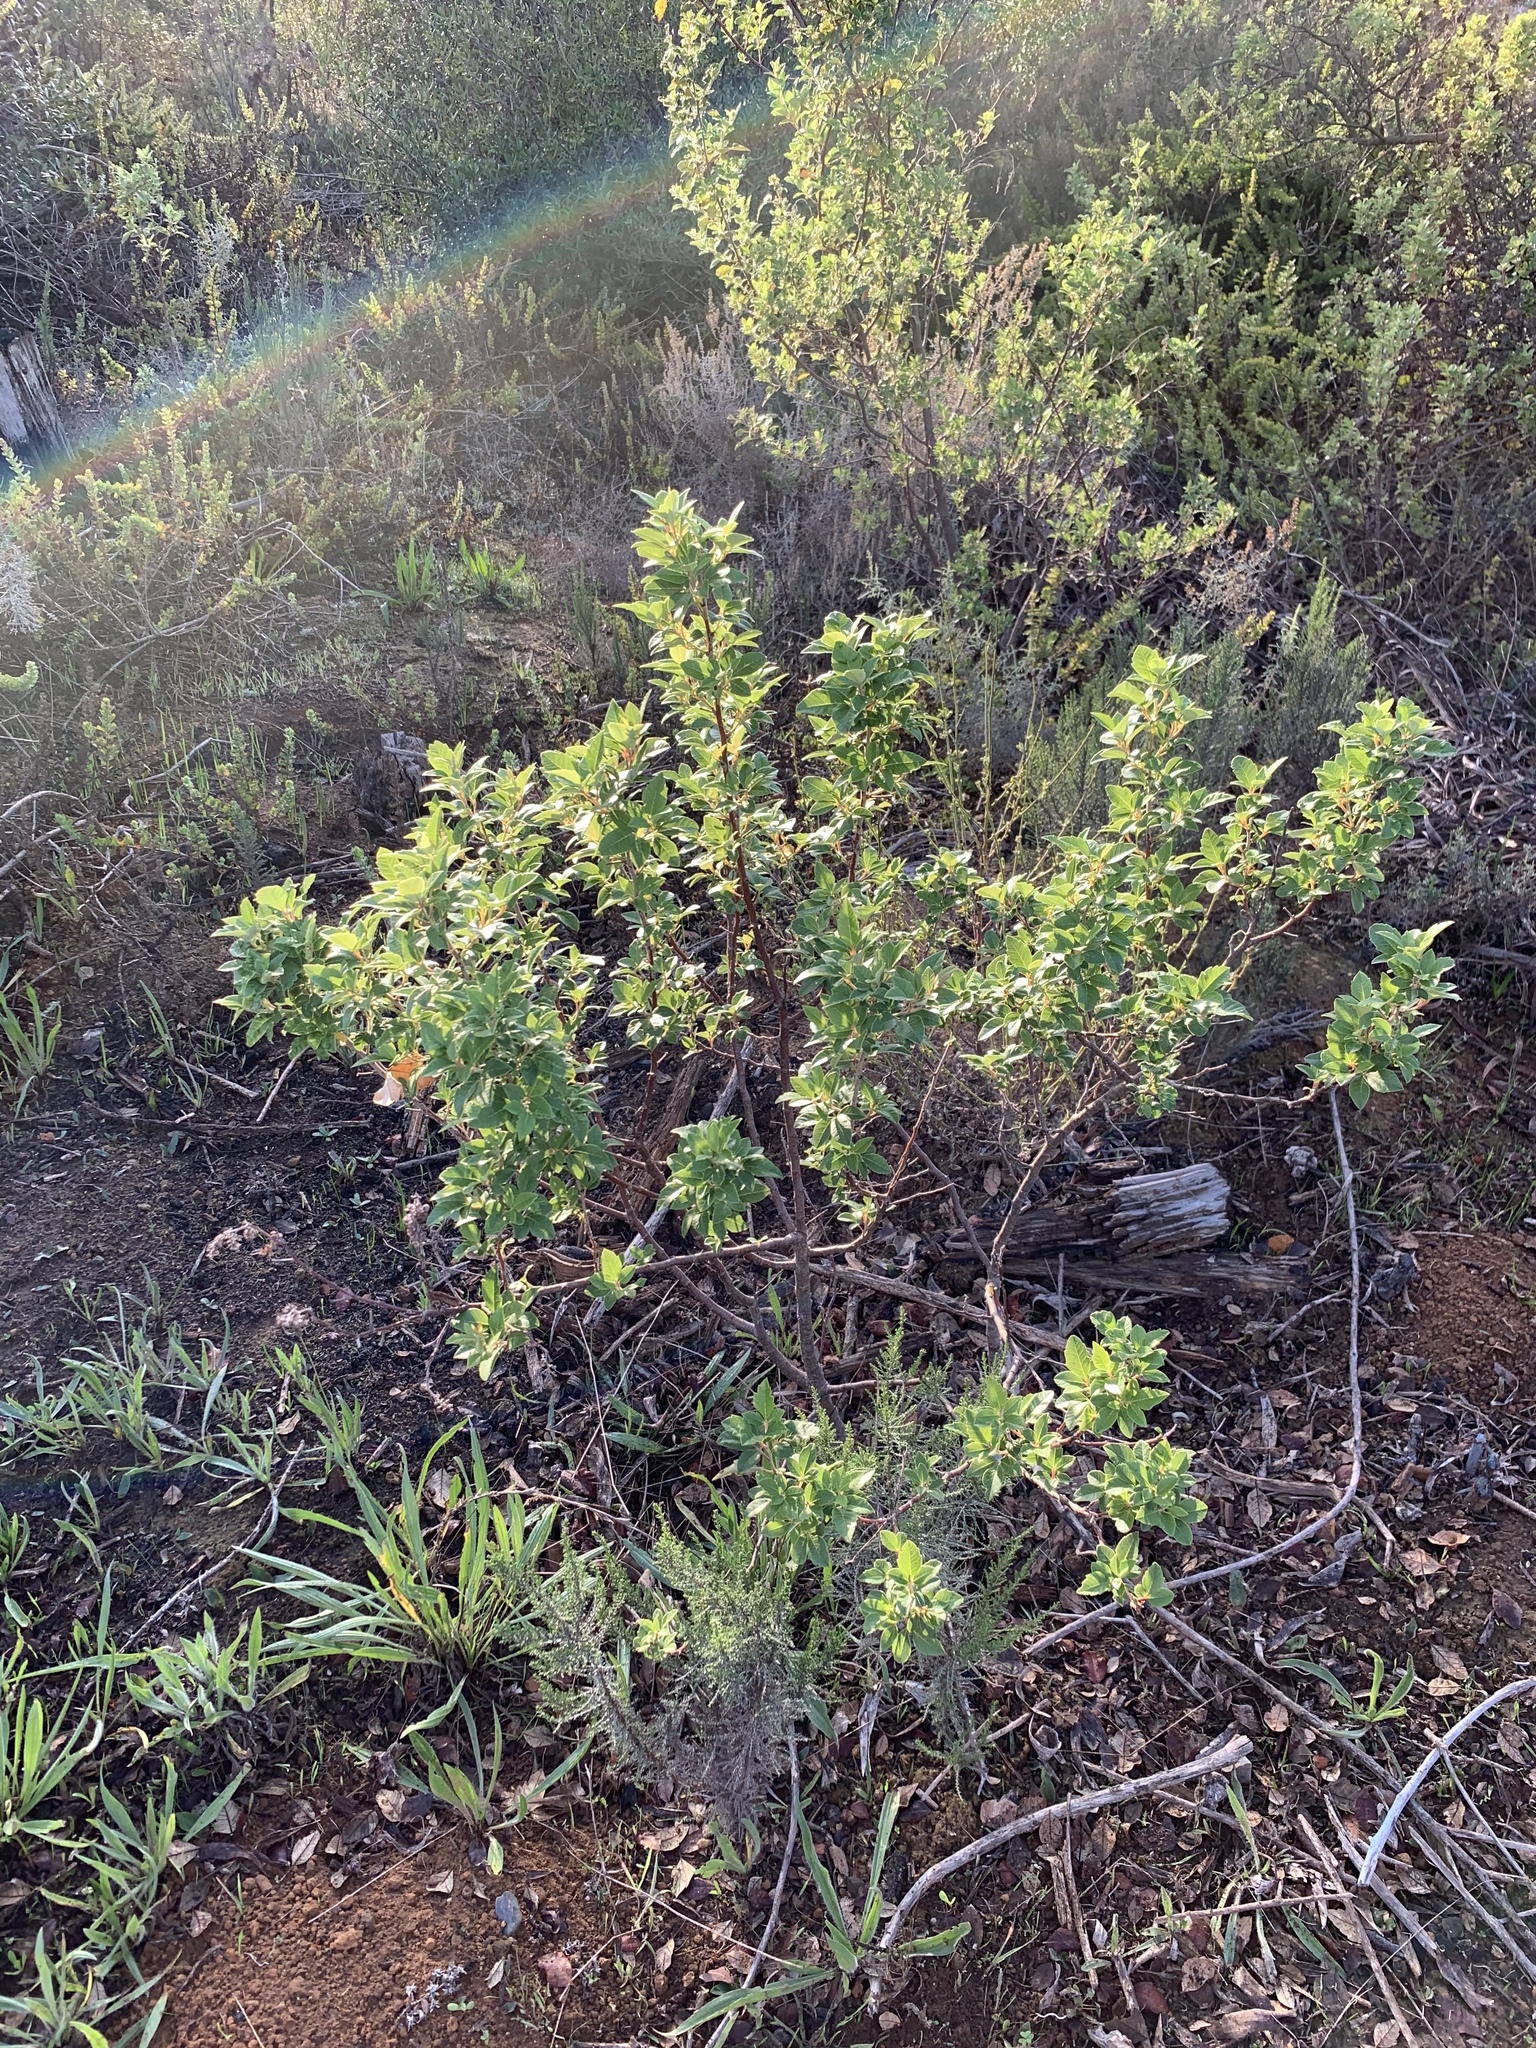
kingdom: Plantae
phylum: Tracheophyta
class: Magnoliopsida
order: Sapindales
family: Anacardiaceae
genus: Searsia
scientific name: Searsia tomentosa
